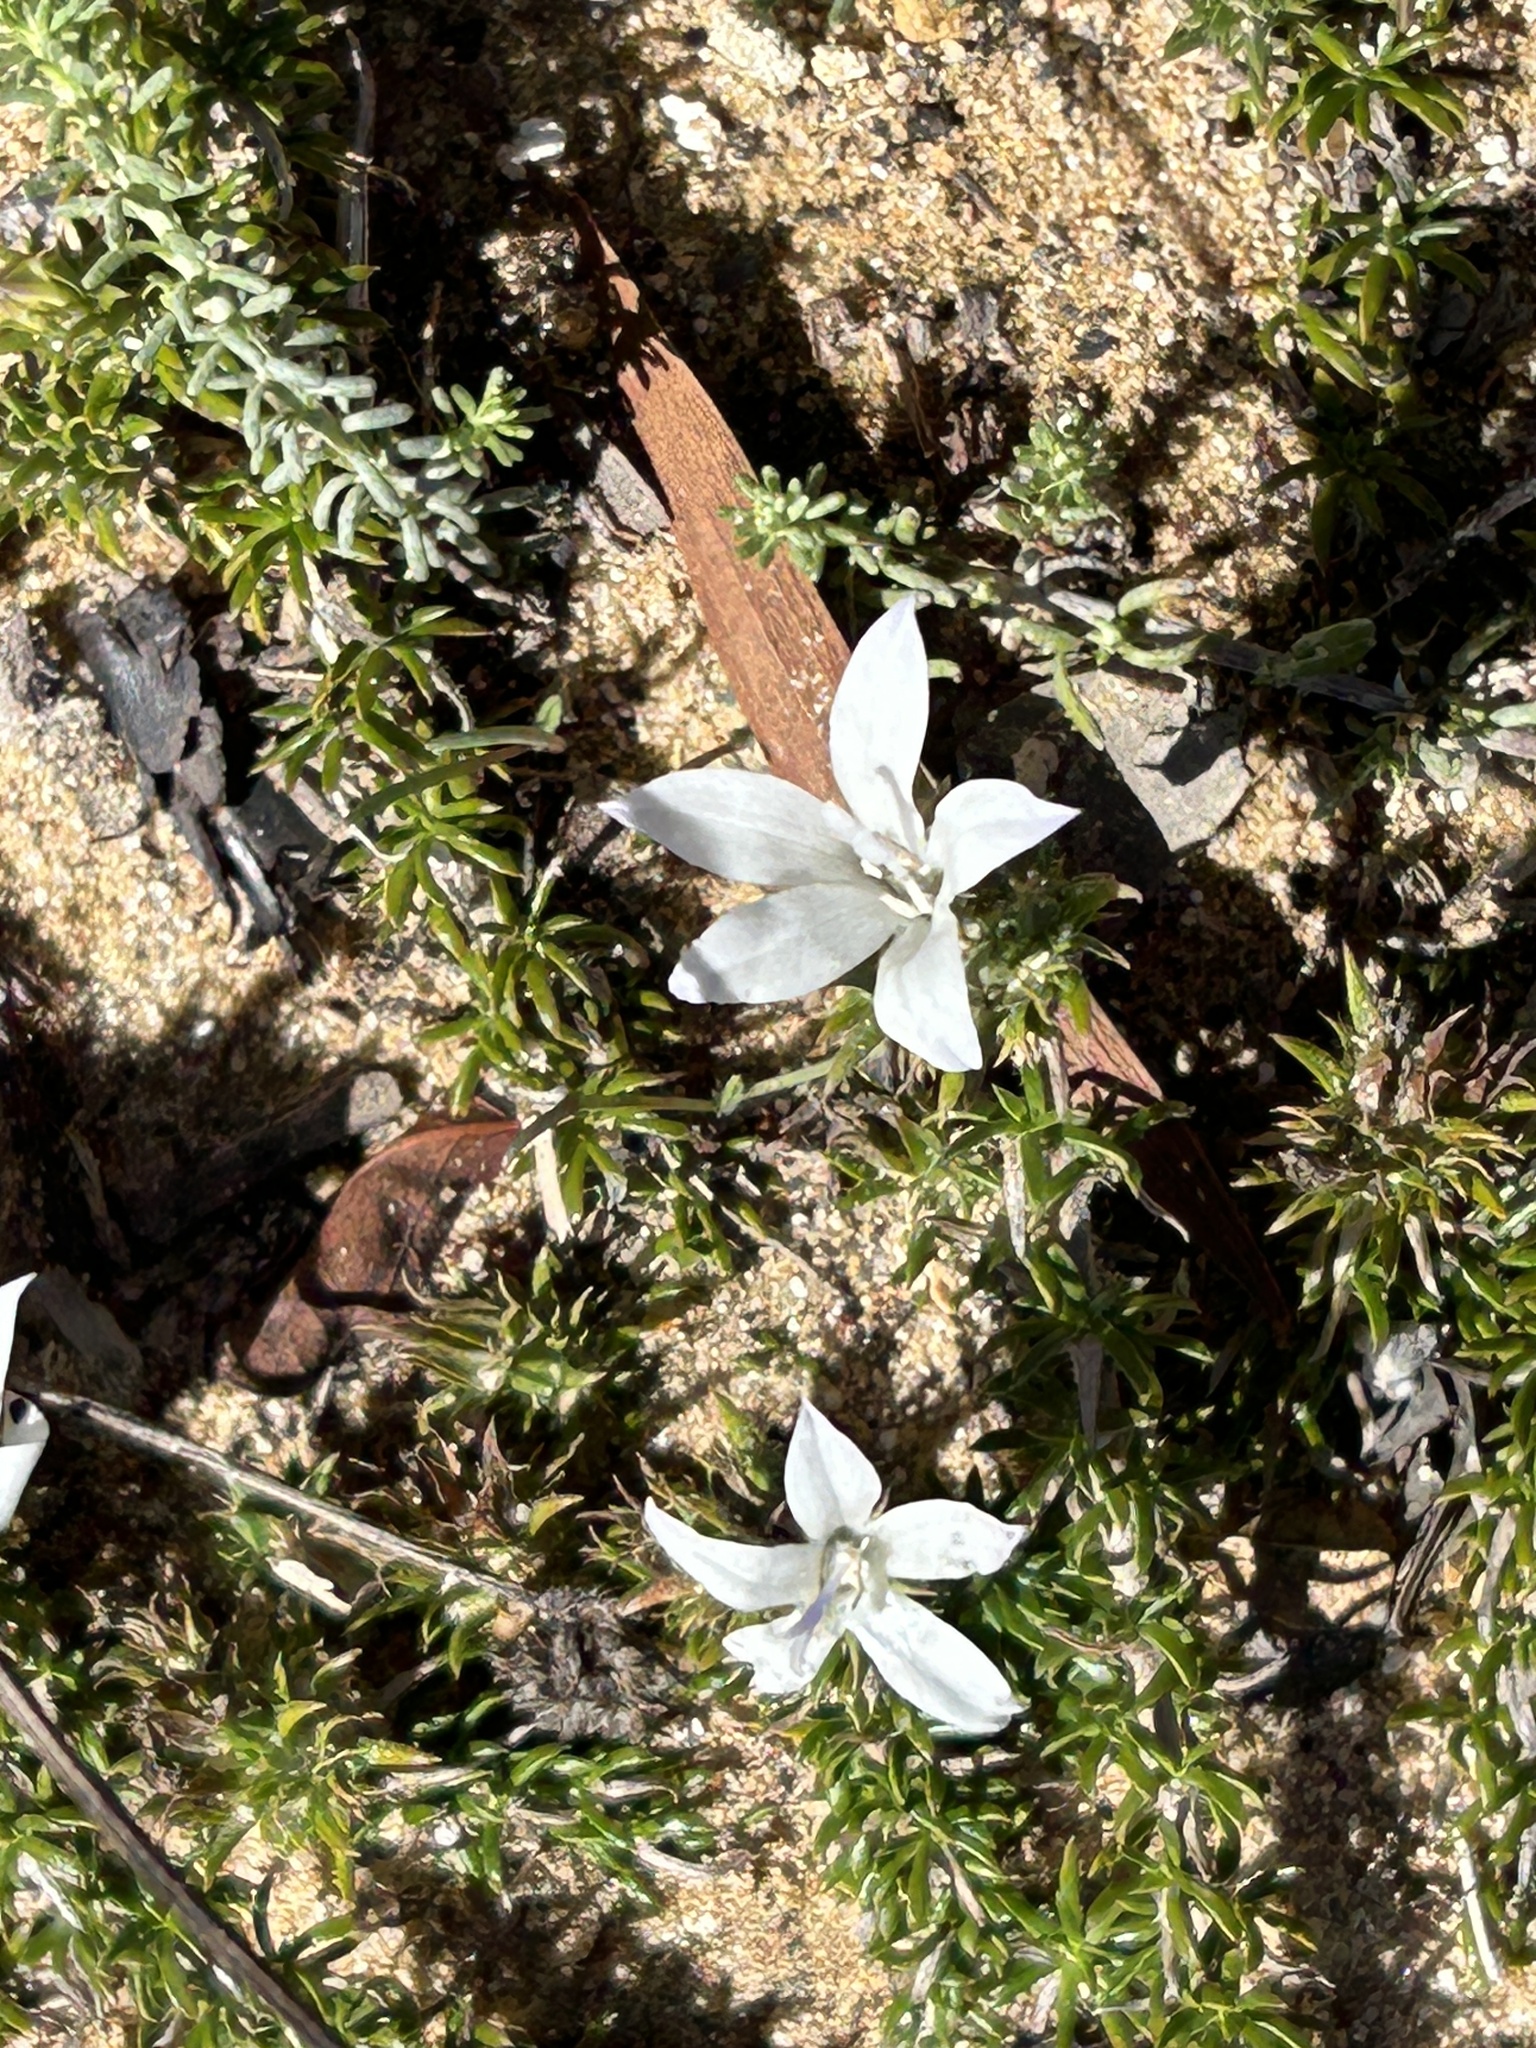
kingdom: Plantae
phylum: Tracheophyta
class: Magnoliopsida
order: Asterales
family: Campanulaceae
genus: Wahlenbergia
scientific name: Wahlenbergia calcarea
